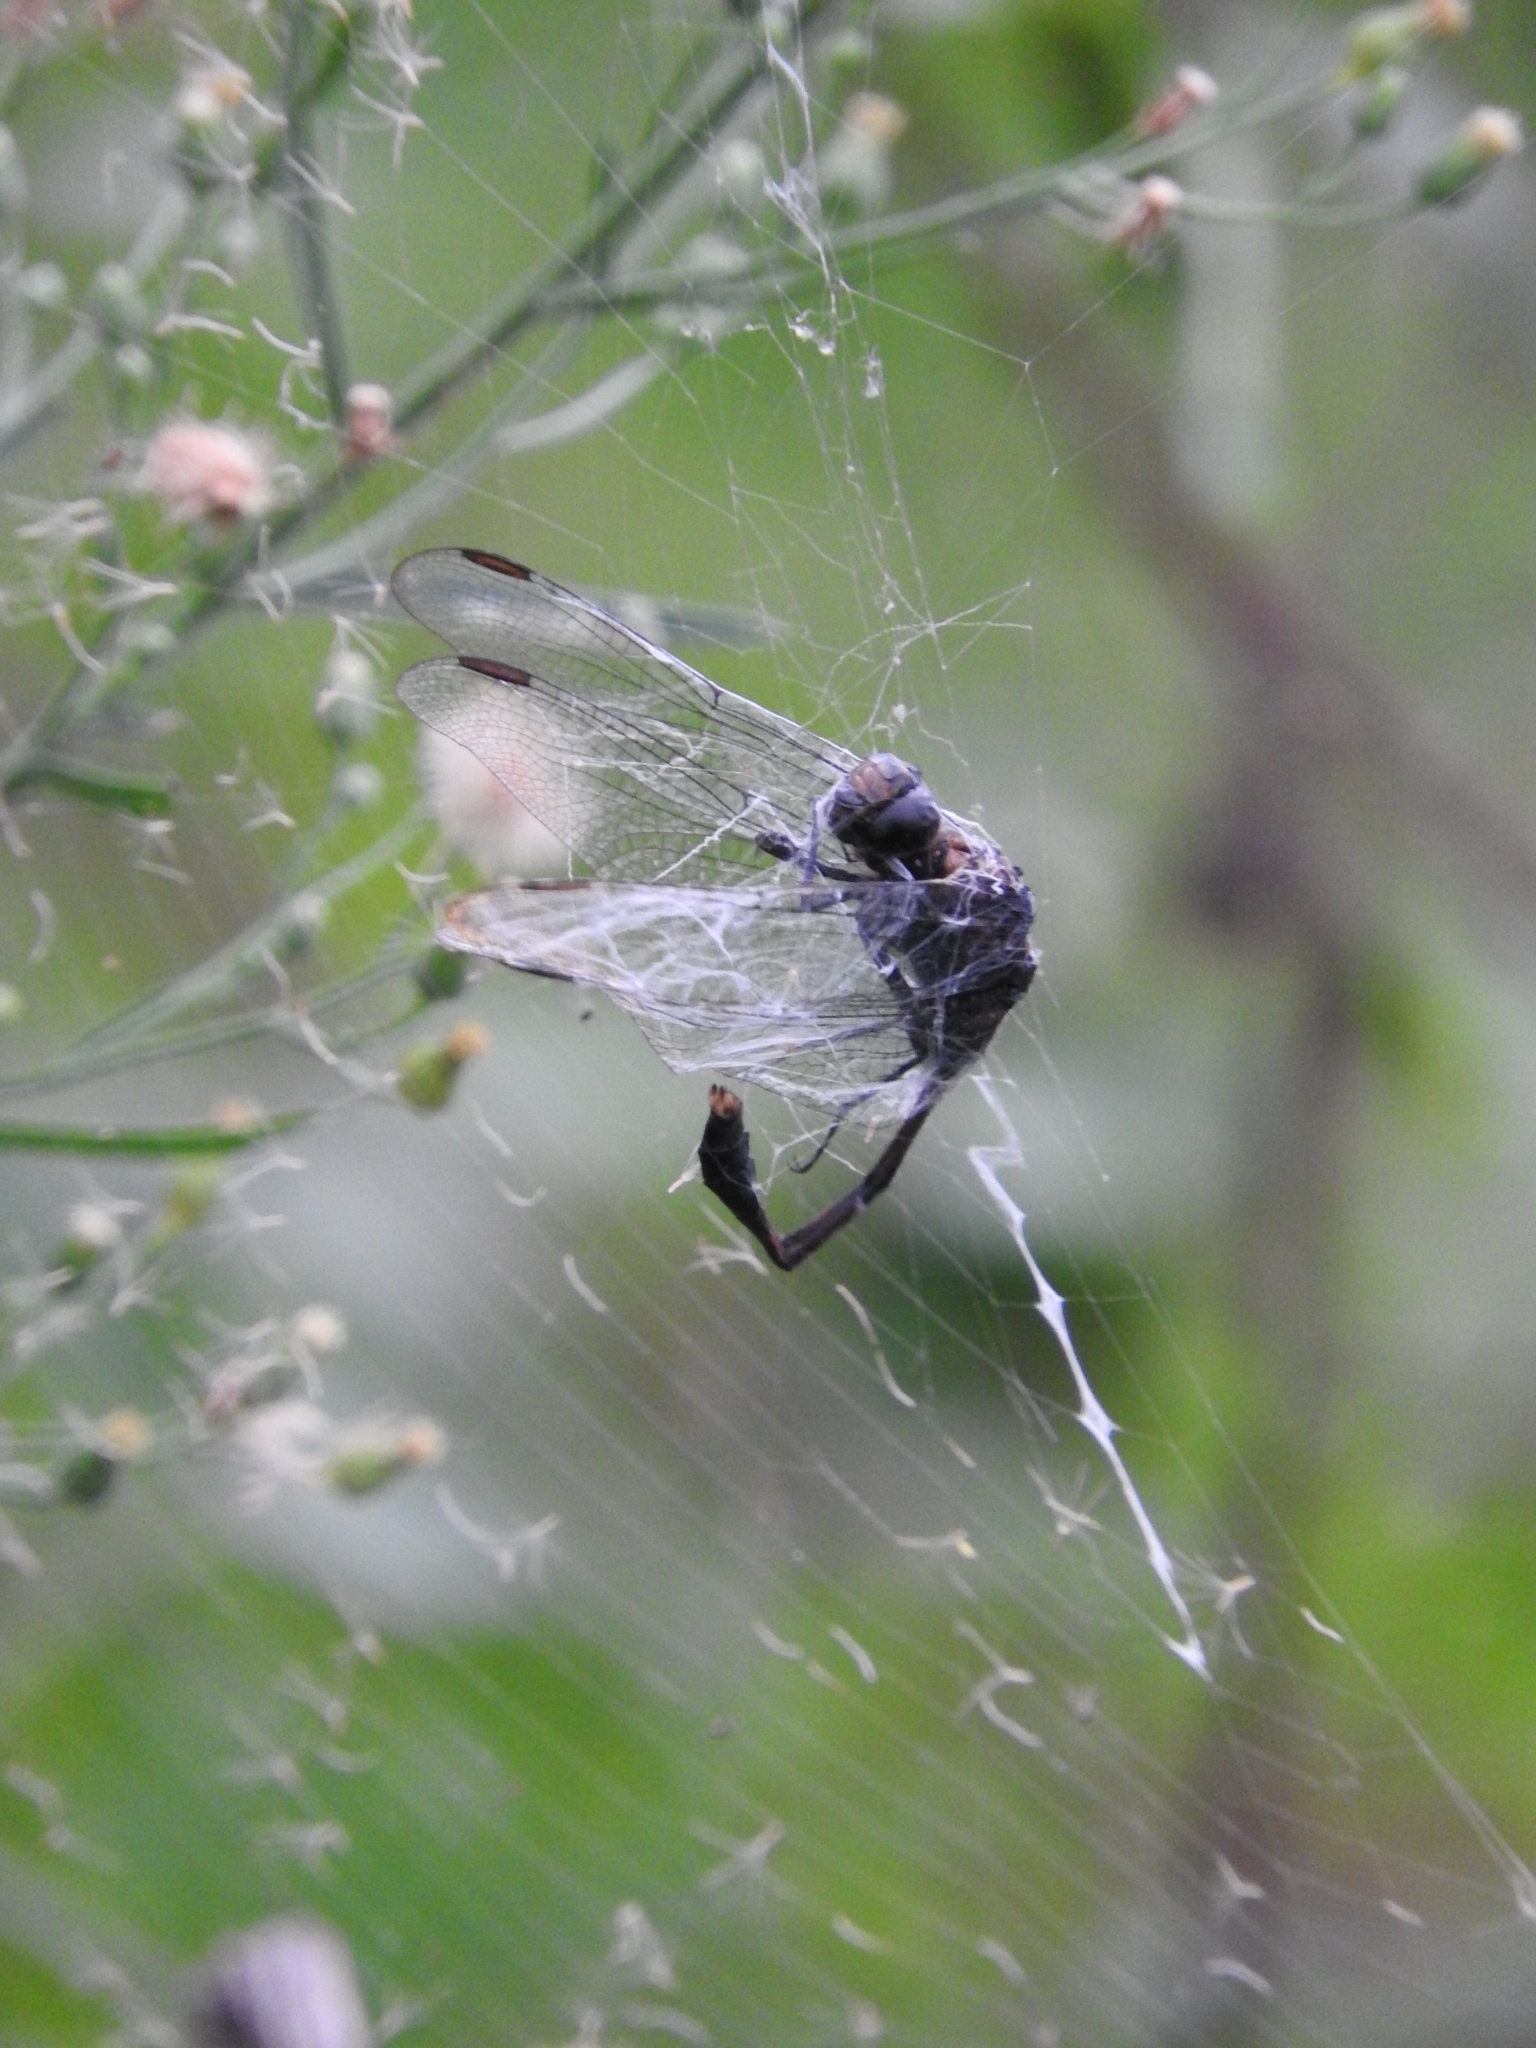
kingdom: Animalia
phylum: Arthropoda
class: Insecta
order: Odonata
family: Libellulidae
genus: Orthetrum
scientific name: Orthetrum sabina
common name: Slender skimmer
